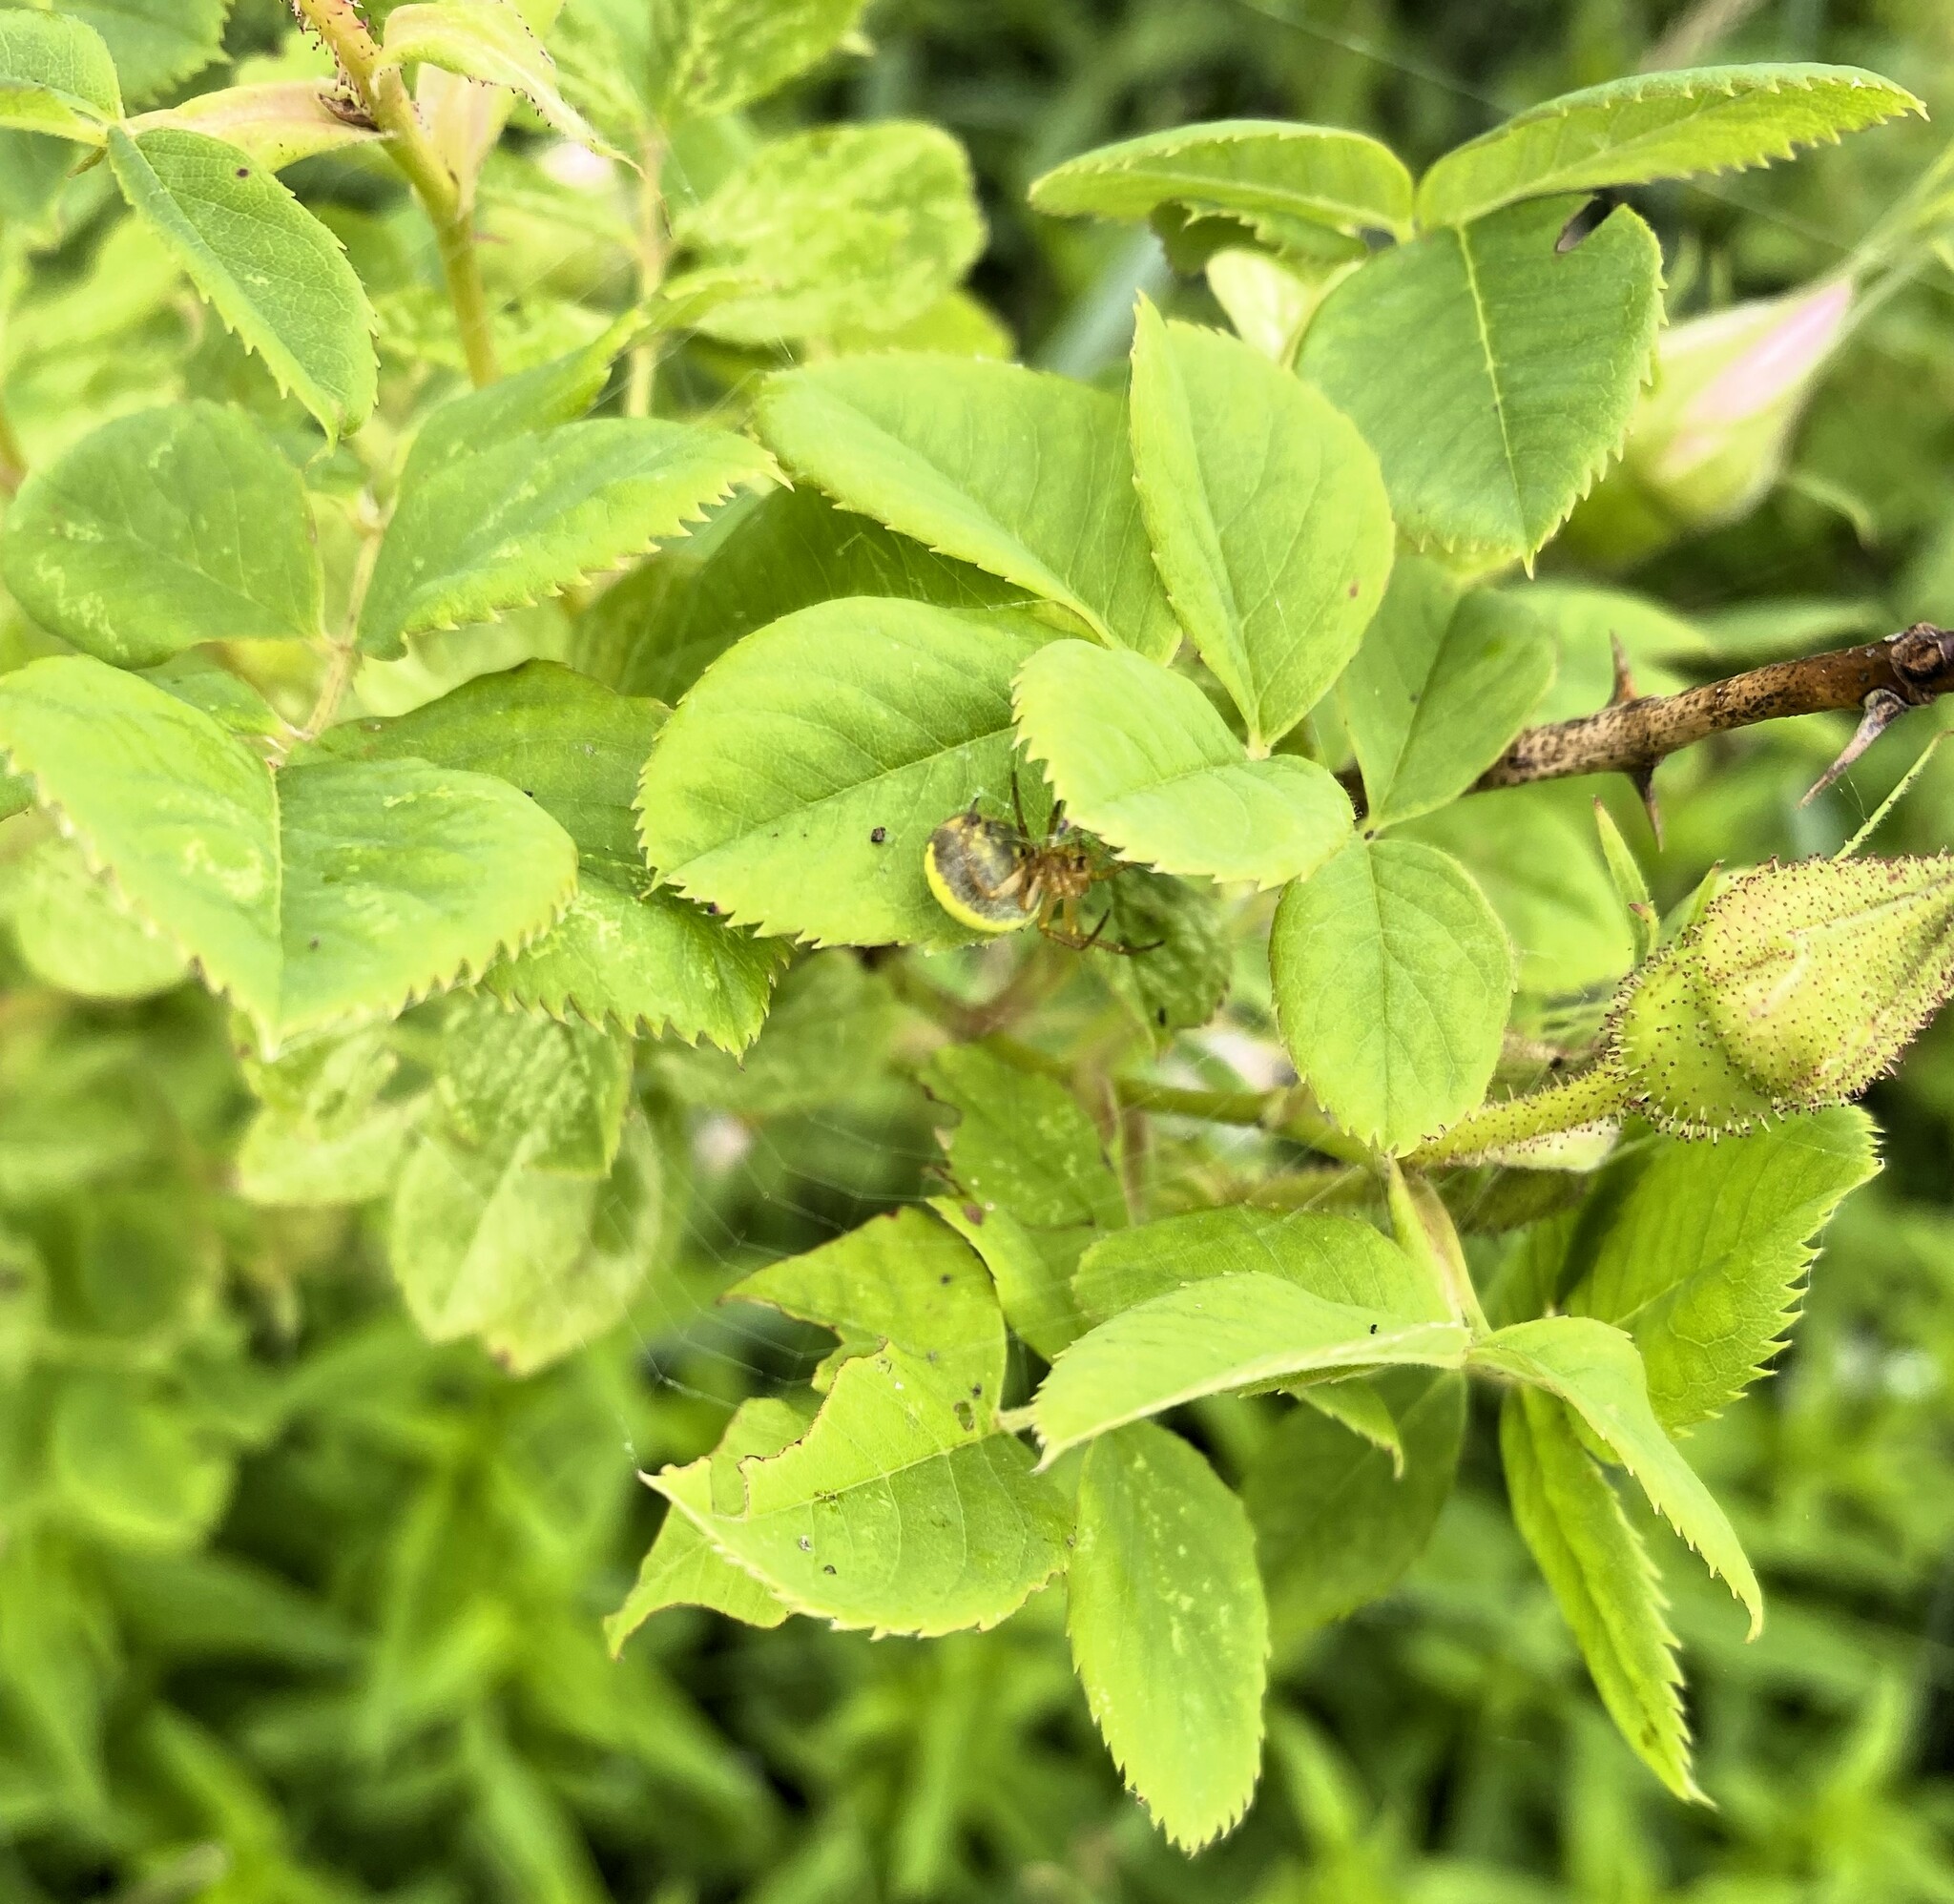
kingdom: Animalia
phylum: Arthropoda
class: Arachnida
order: Araneae
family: Araneidae
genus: Araniella
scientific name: Araniella displicata
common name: Sixspotted orb weaver
